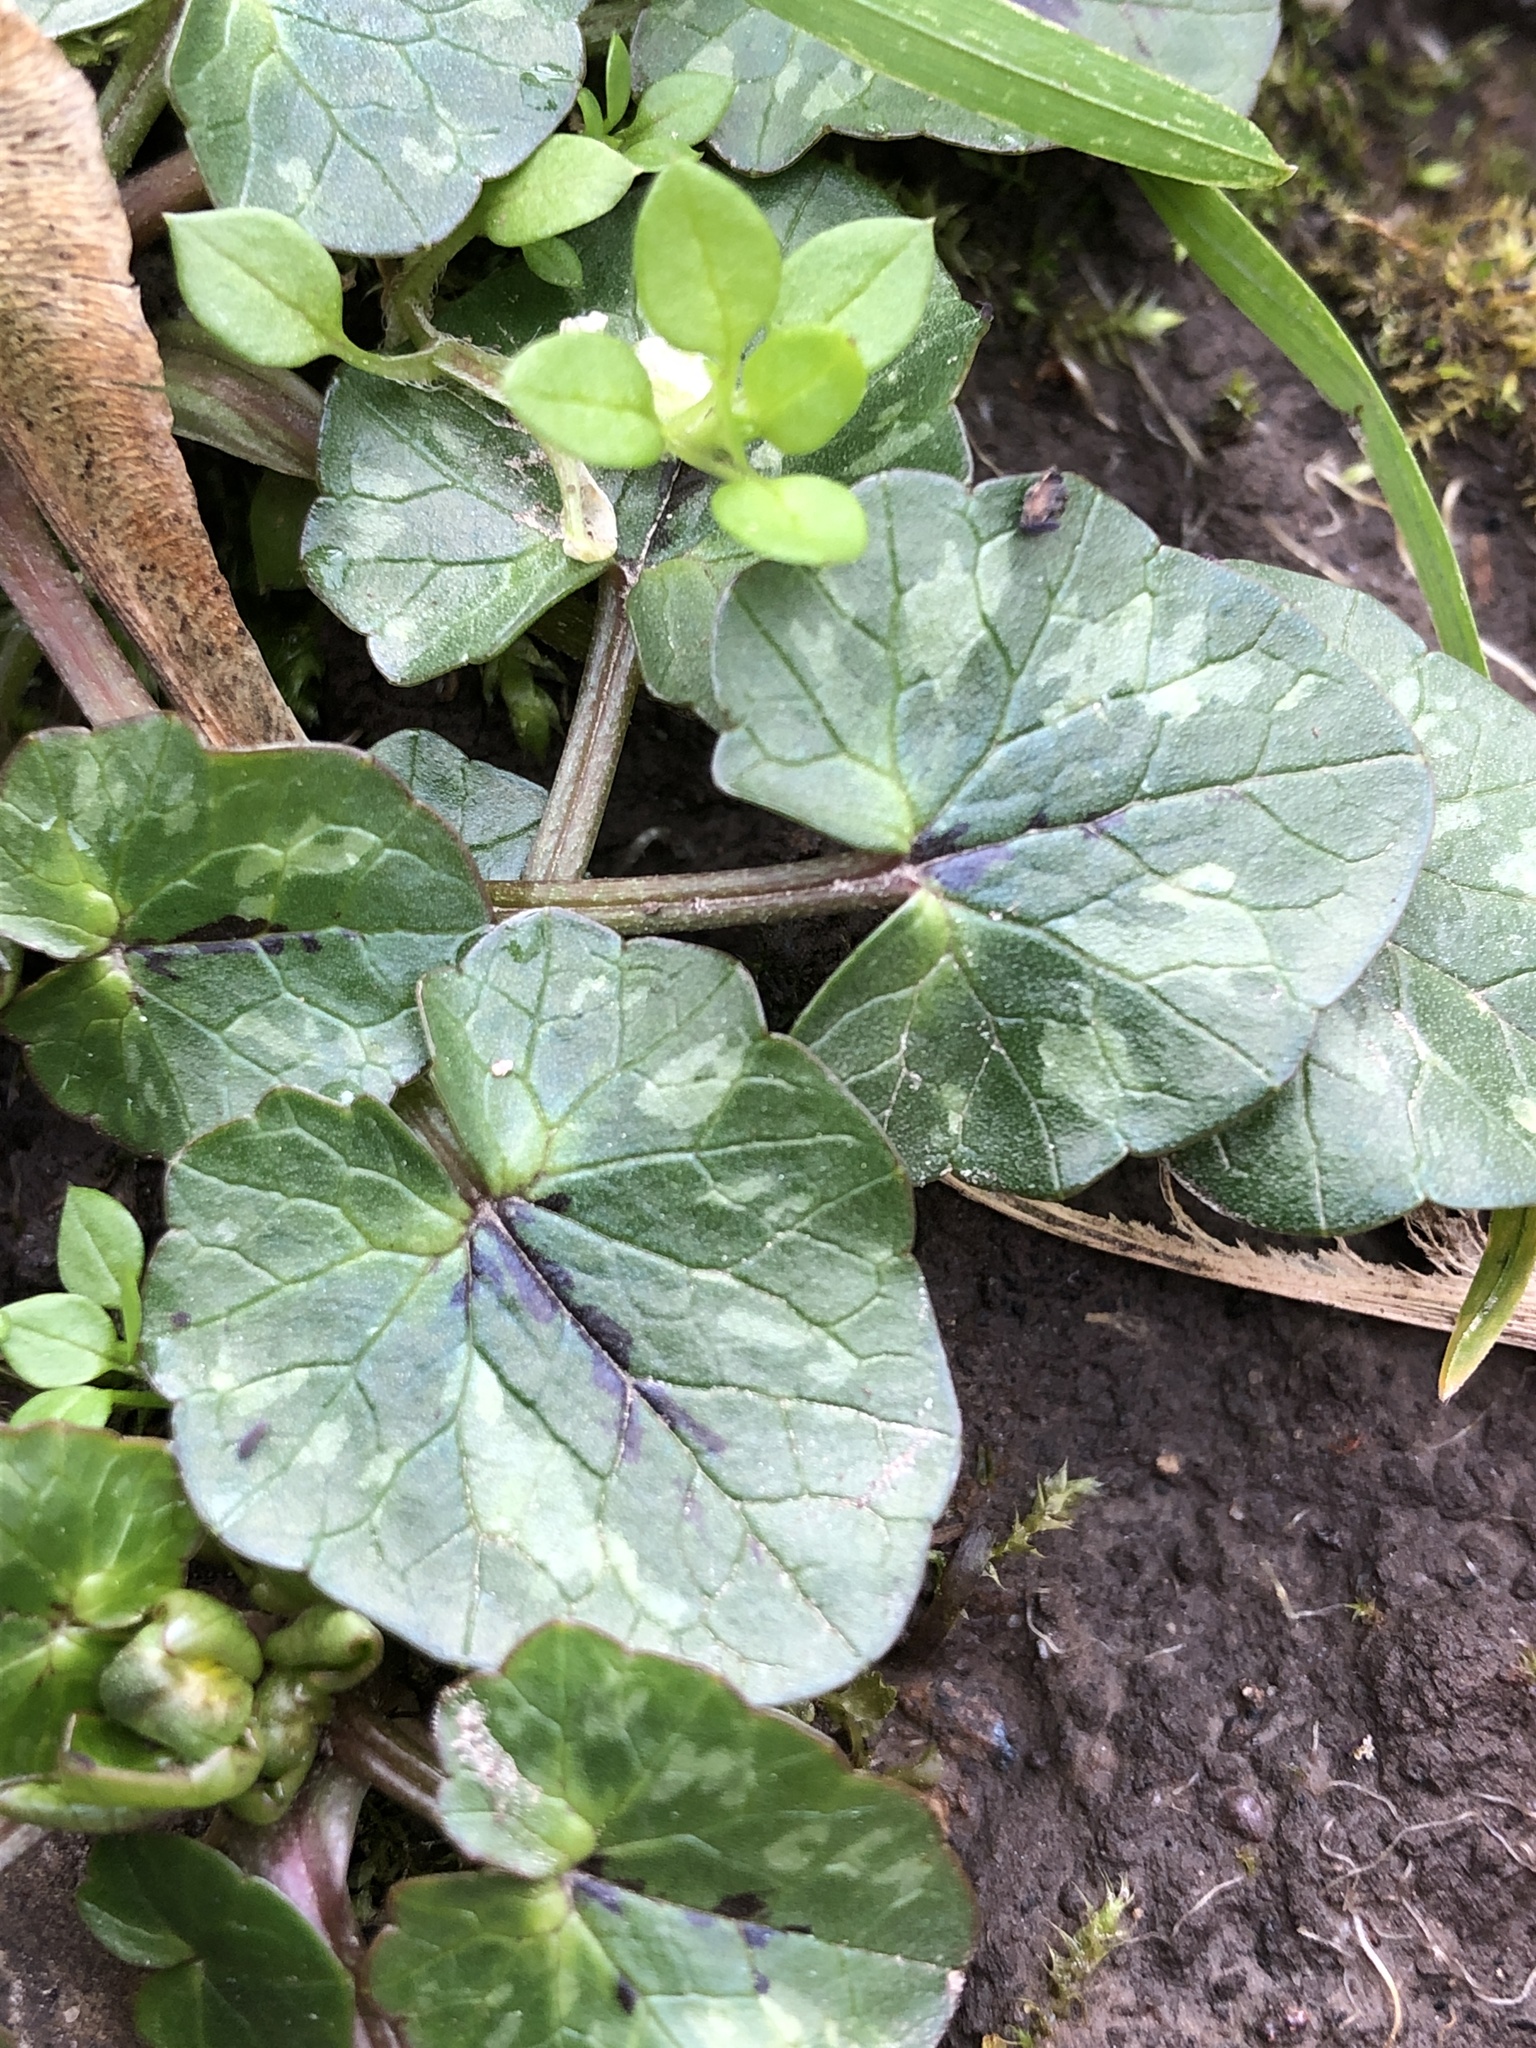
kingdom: Plantae
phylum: Tracheophyta
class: Magnoliopsida
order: Ranunculales
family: Ranunculaceae
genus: Ficaria
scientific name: Ficaria verna
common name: Lesser celandine
